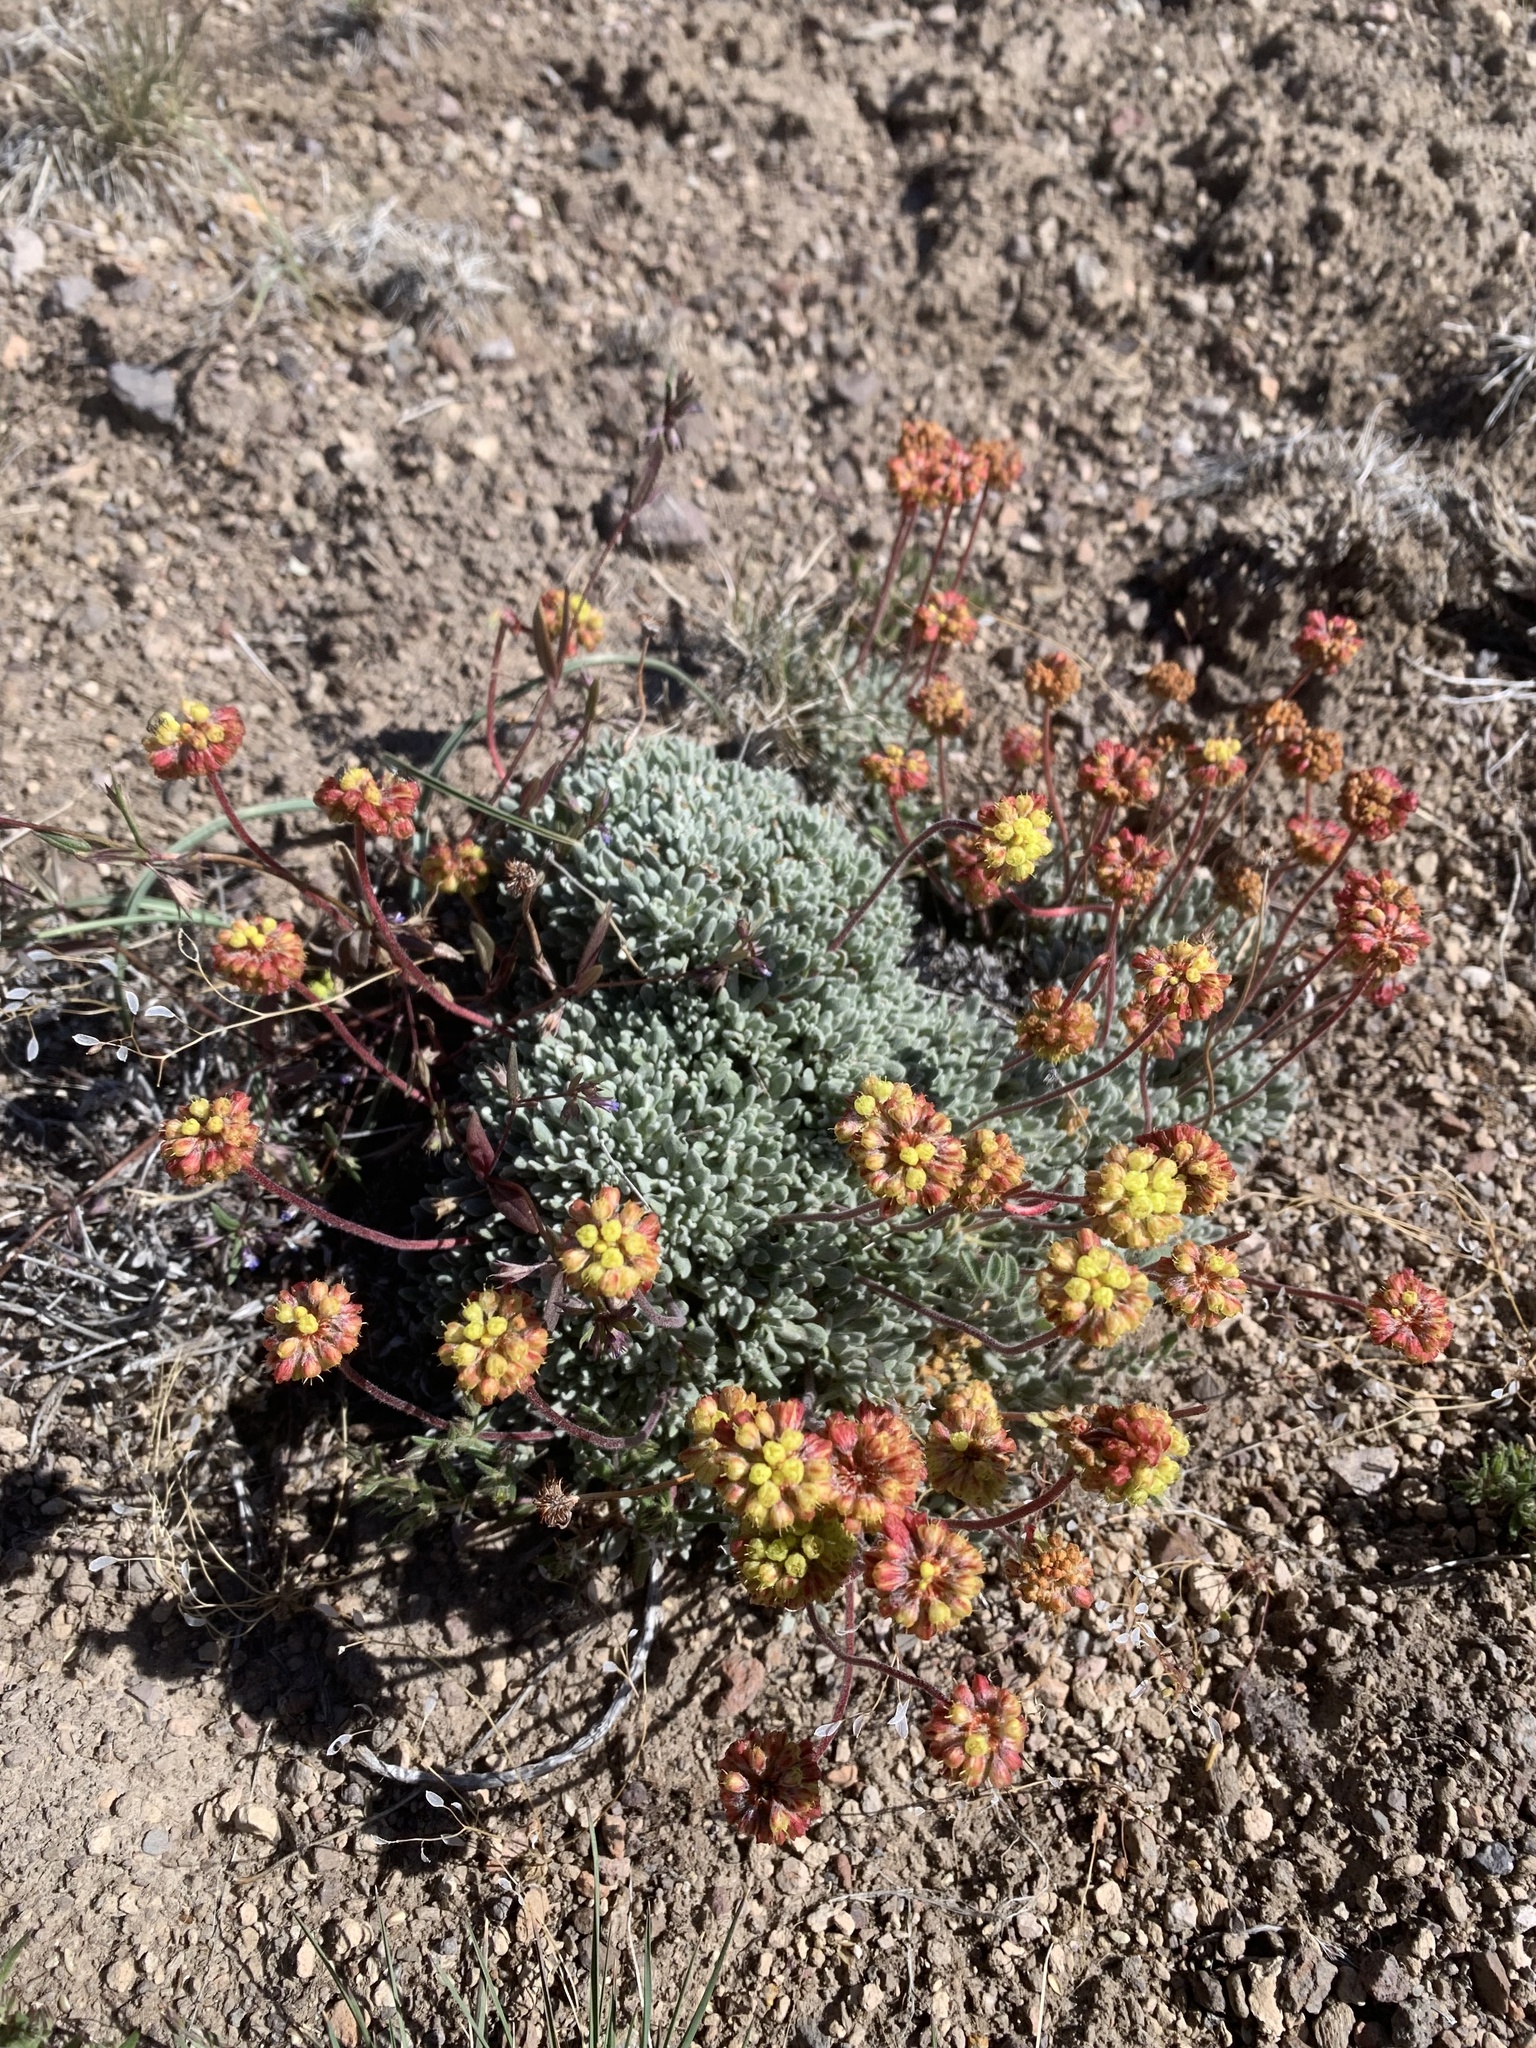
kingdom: Plantae
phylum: Tracheophyta
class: Magnoliopsida
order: Caryophyllales
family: Polygonaceae
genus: Eriogonum
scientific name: Eriogonum caespitosum
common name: Matted wild buckwheat
